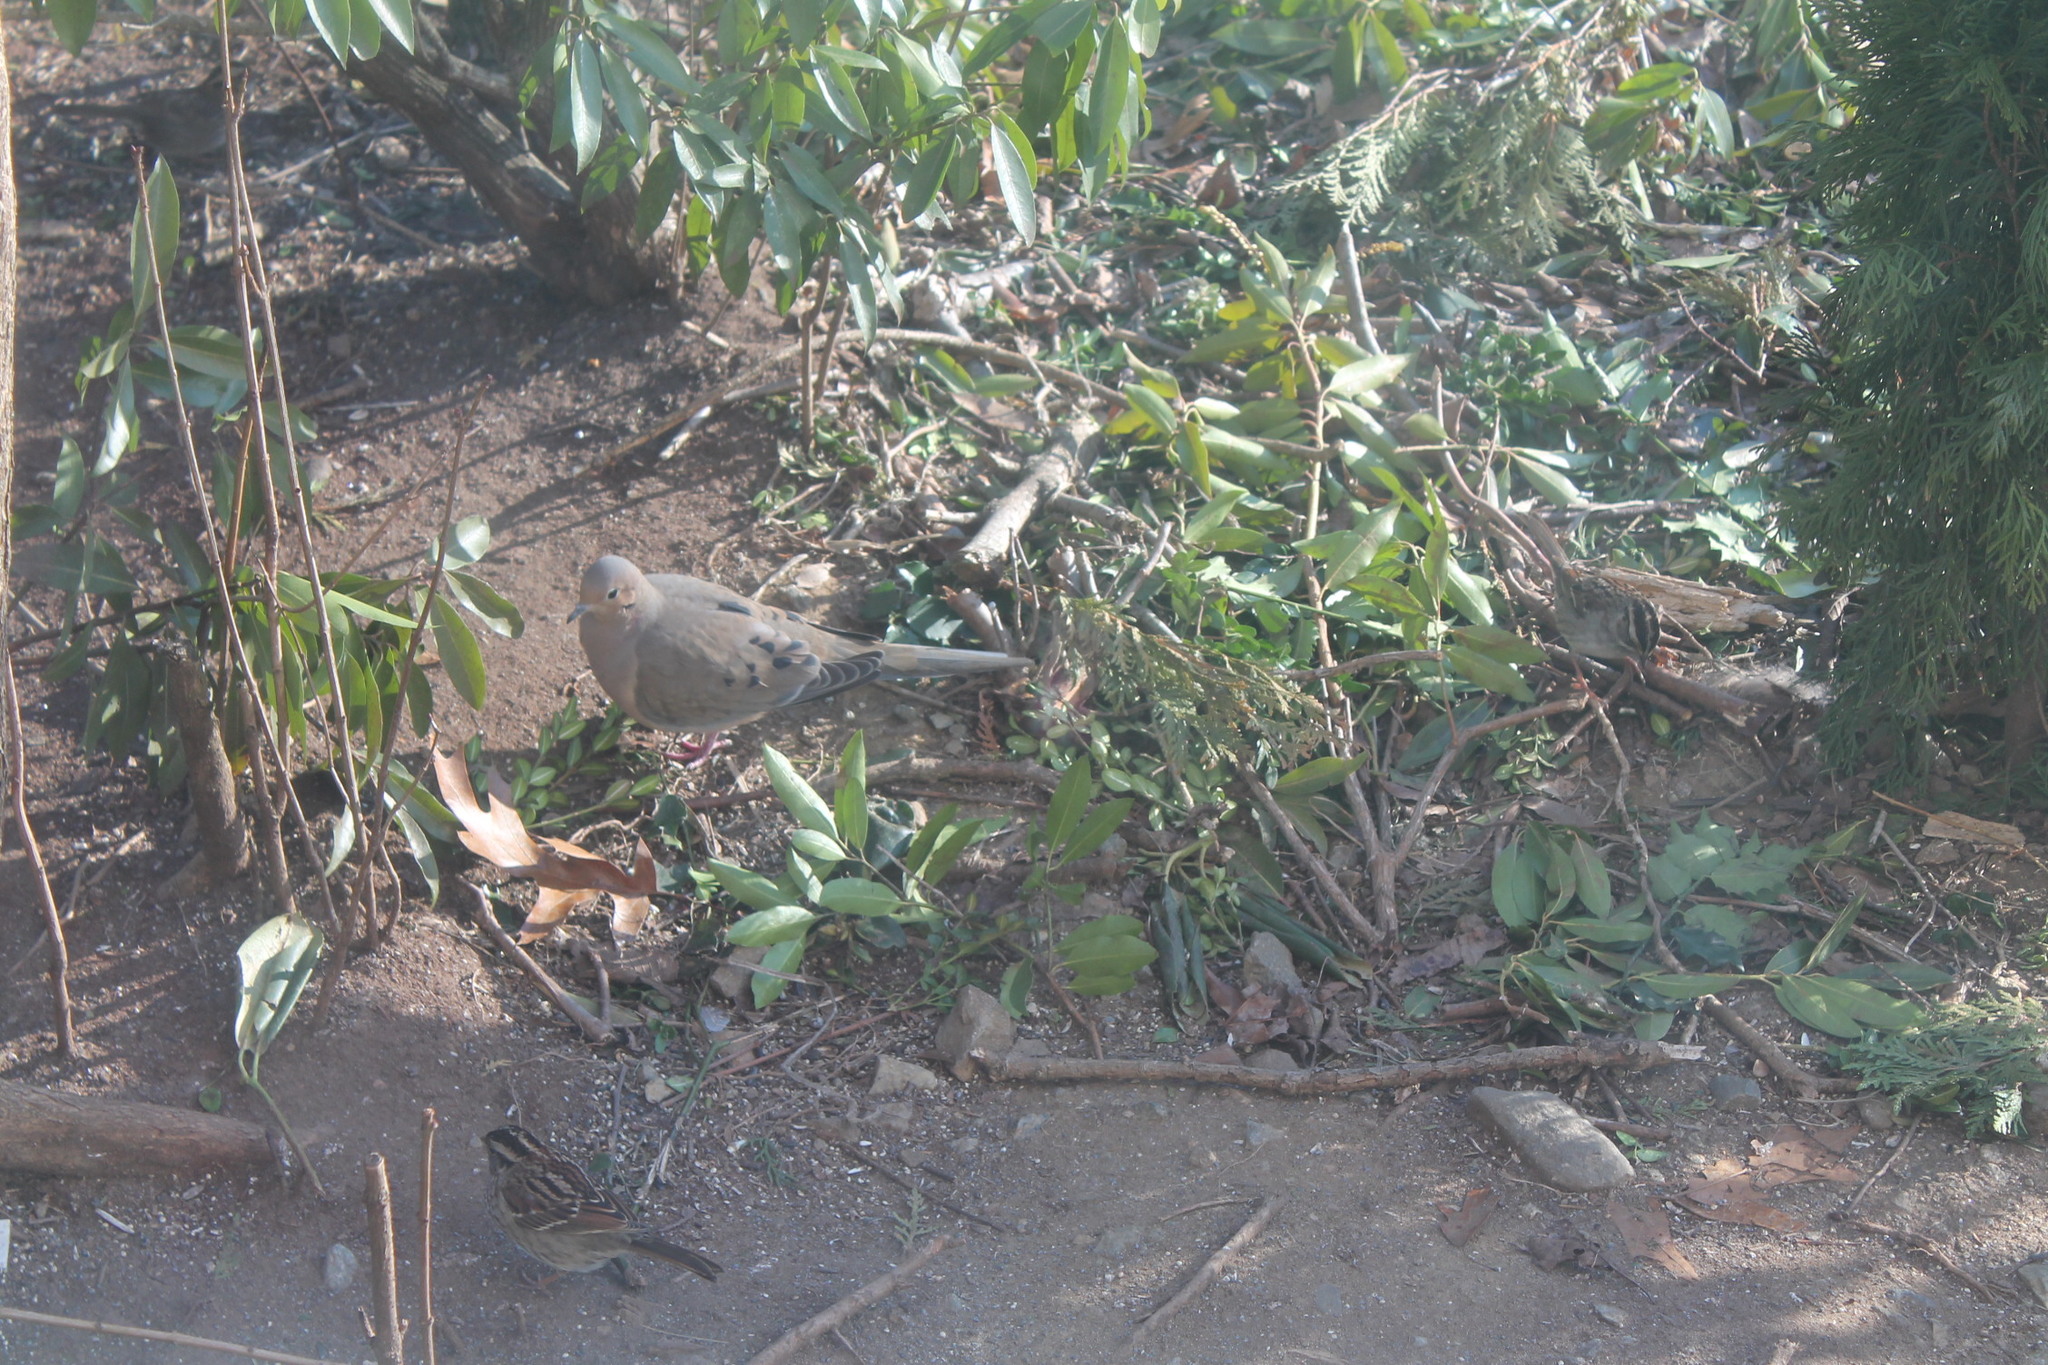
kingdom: Animalia
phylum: Chordata
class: Aves
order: Columbiformes
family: Columbidae
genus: Zenaida
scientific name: Zenaida macroura
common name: Mourning dove
